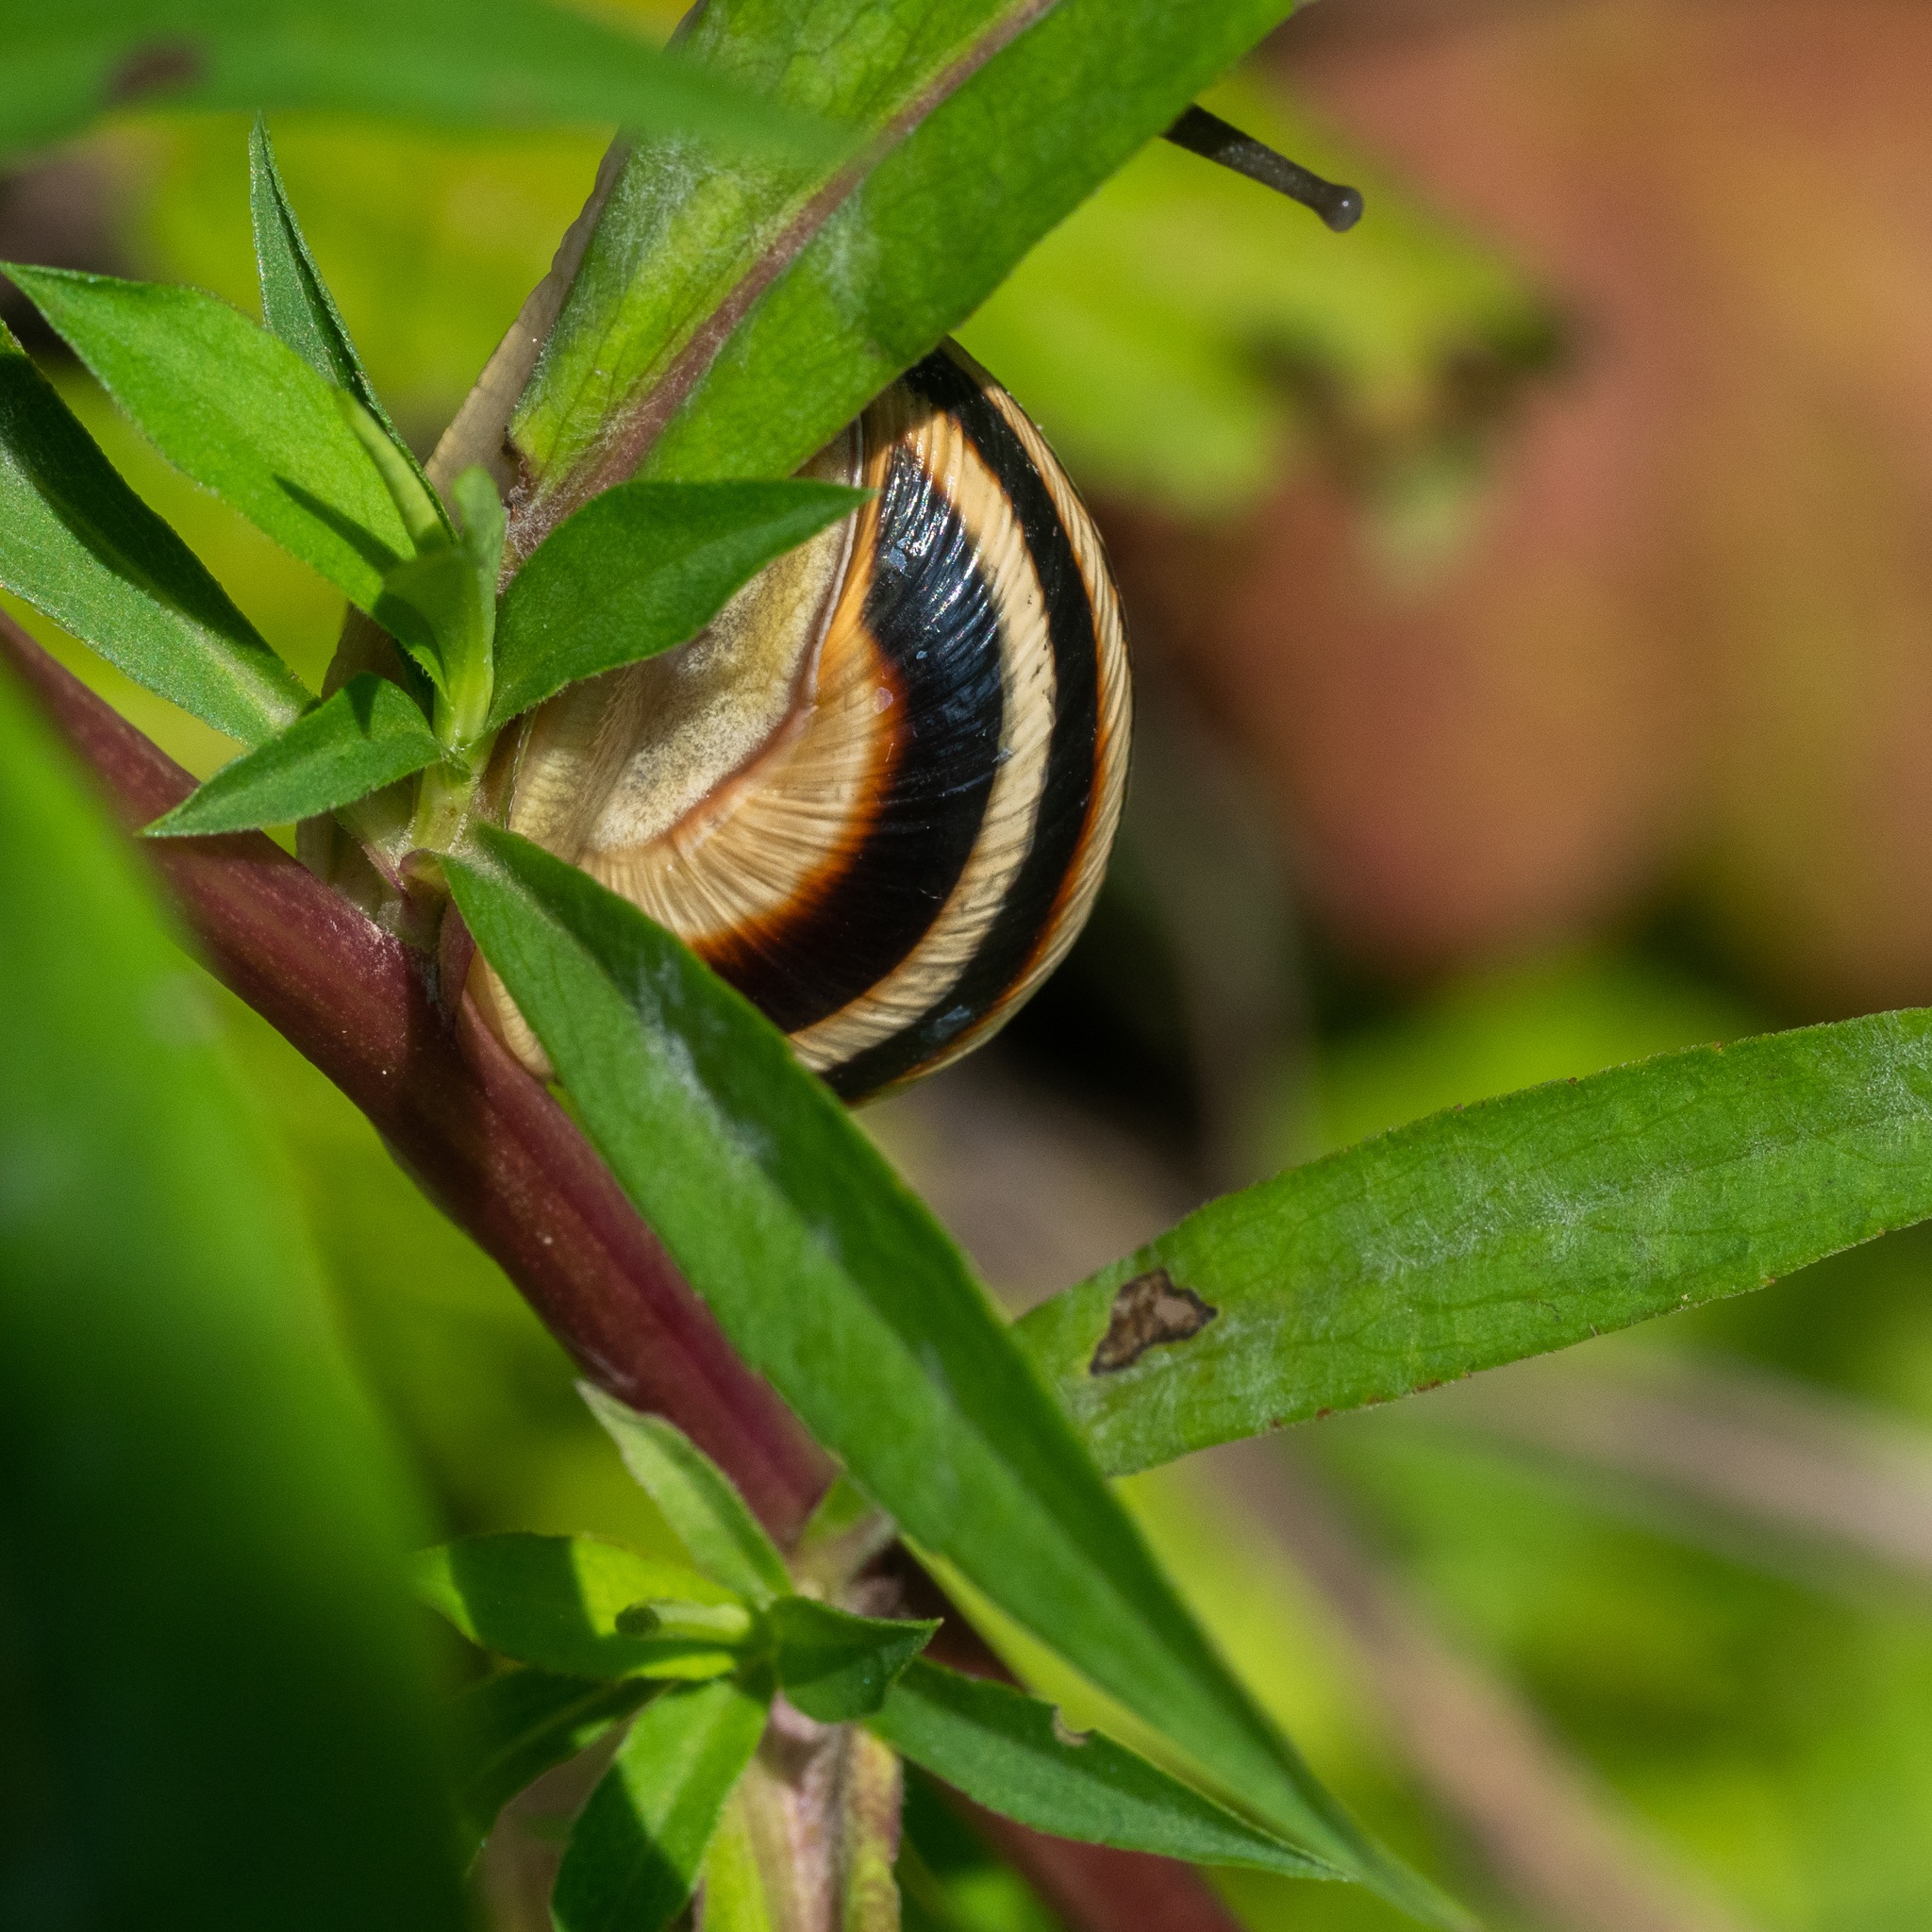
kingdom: Animalia
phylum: Mollusca
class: Gastropoda
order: Stylommatophora
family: Helicidae
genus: Caucasotachea
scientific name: Caucasotachea vindobonensis
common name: European helicid land snail
